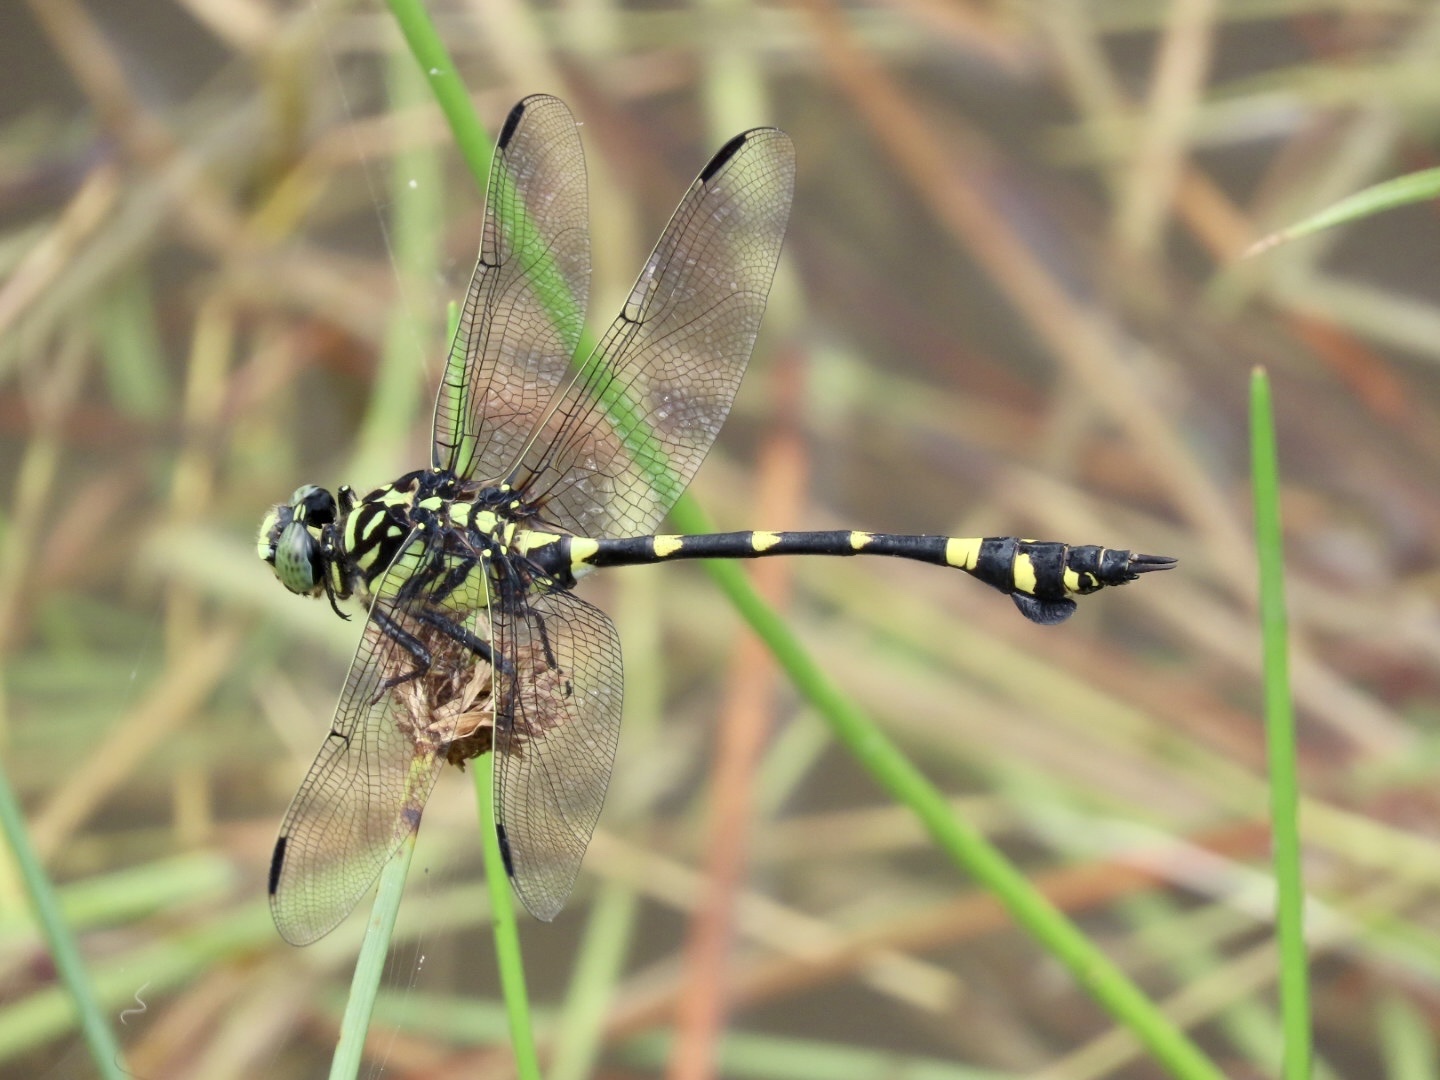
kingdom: Animalia
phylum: Arthropoda
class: Insecta
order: Odonata
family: Gomphidae
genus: Ictinogomphus
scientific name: Ictinogomphus pertinax
